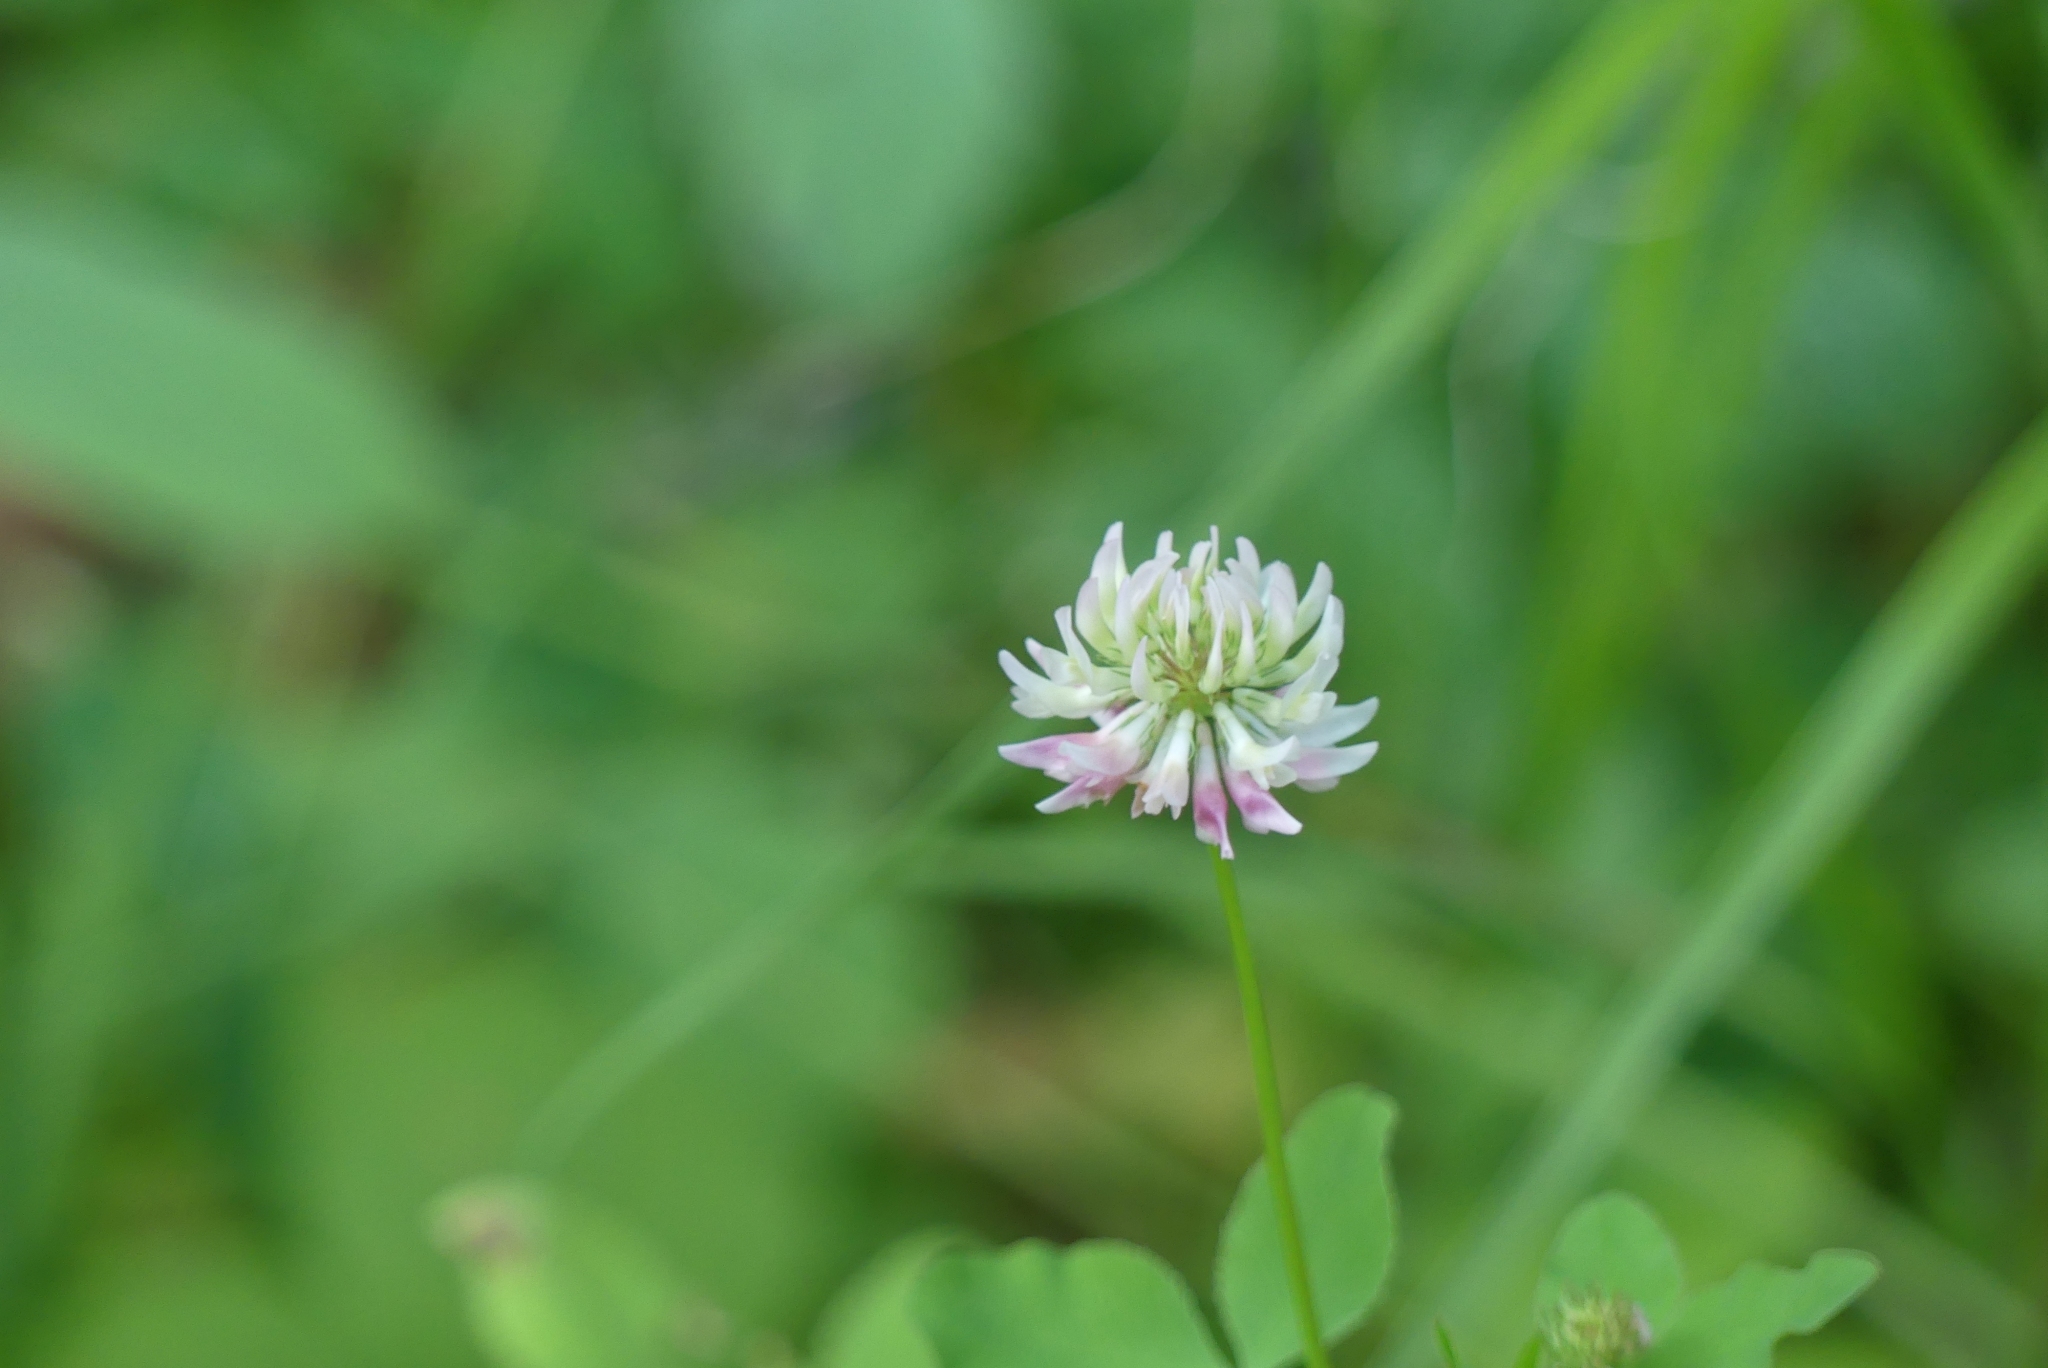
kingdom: Plantae
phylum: Tracheophyta
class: Magnoliopsida
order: Fabales
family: Fabaceae
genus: Trifolium
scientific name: Trifolium hybridum
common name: Alsike clover
